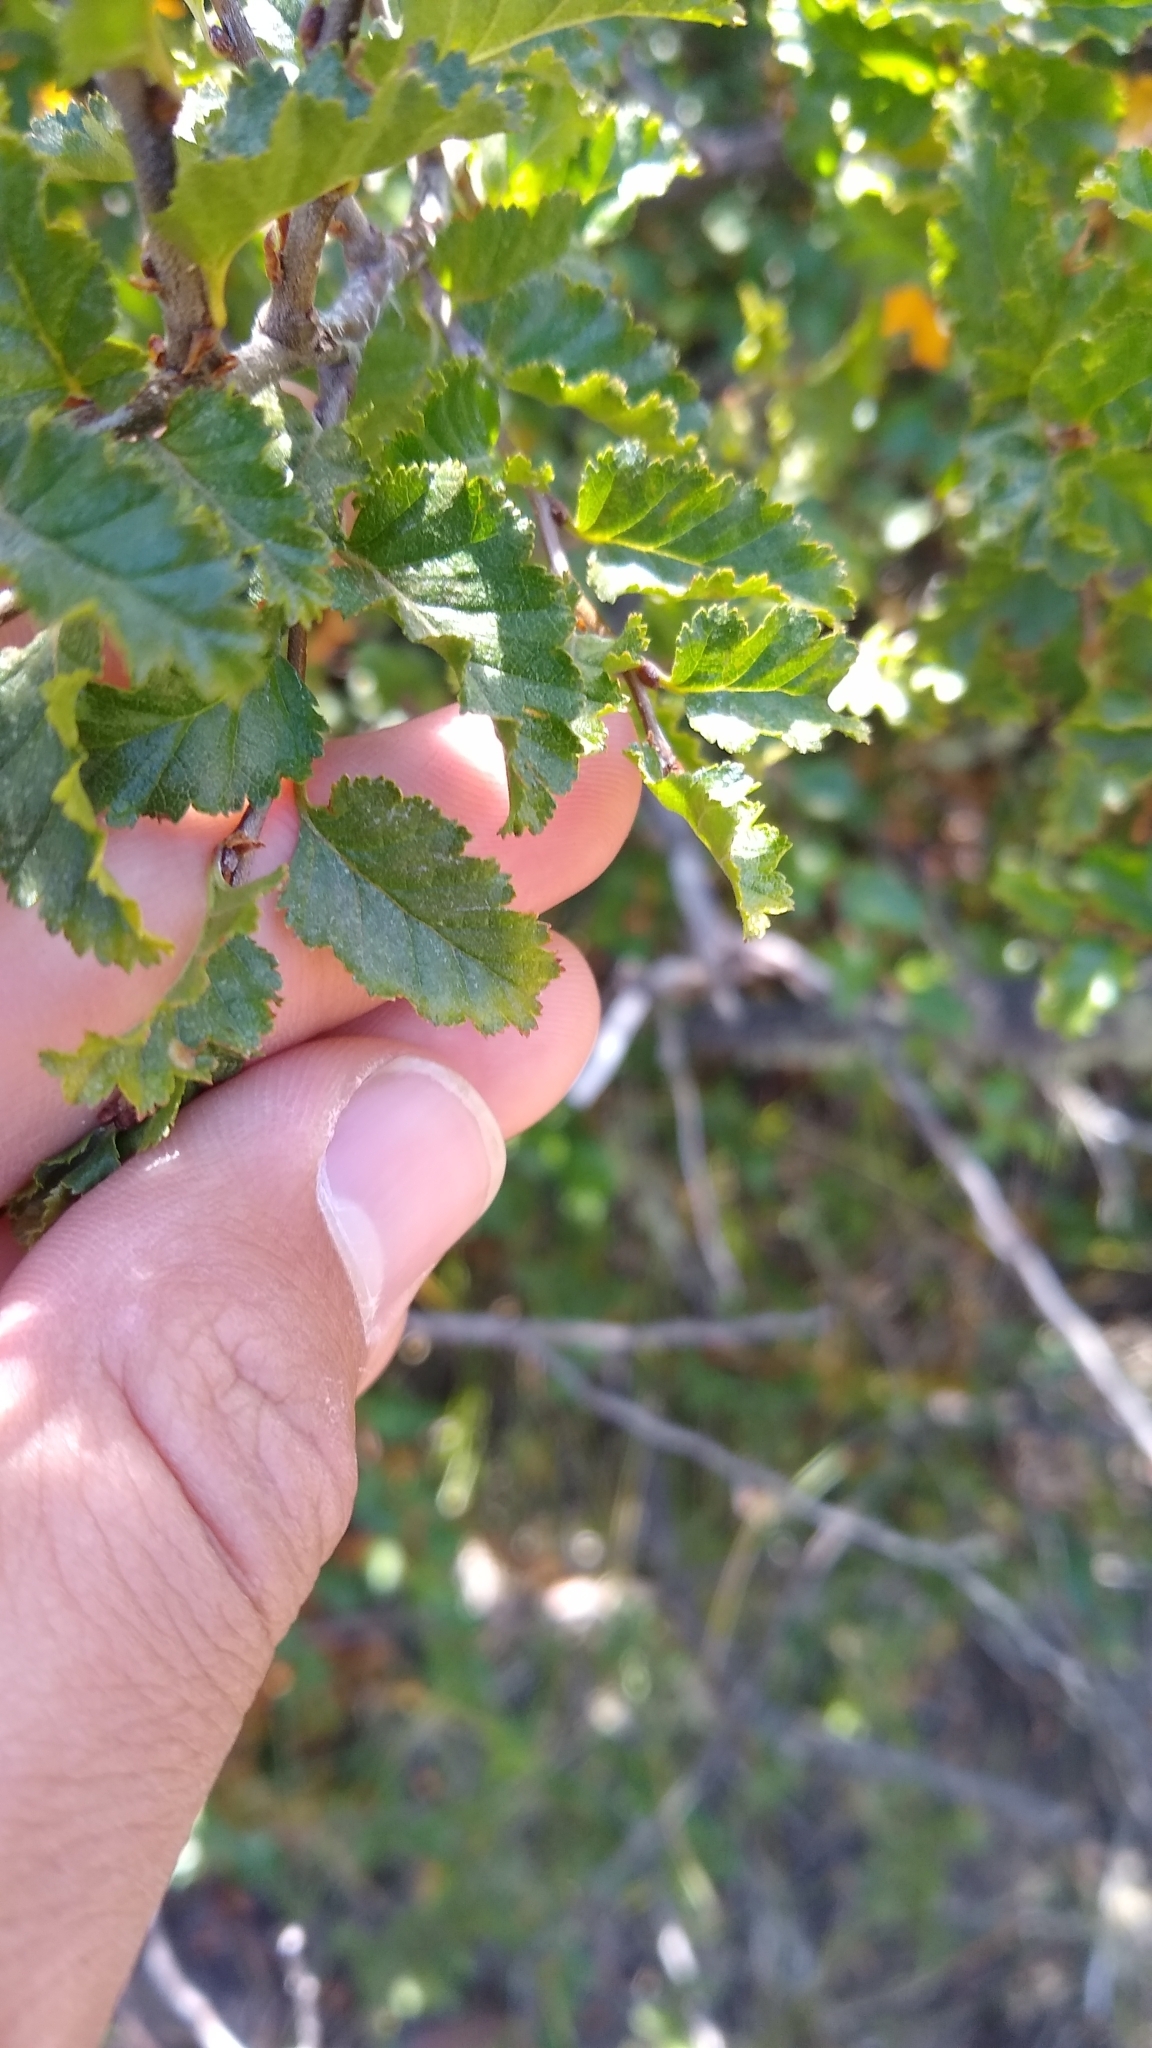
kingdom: Plantae
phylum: Tracheophyta
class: Magnoliopsida
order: Fagales
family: Nothofagaceae
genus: Nothofagus
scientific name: Nothofagus antarctica
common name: Antarctic beech
